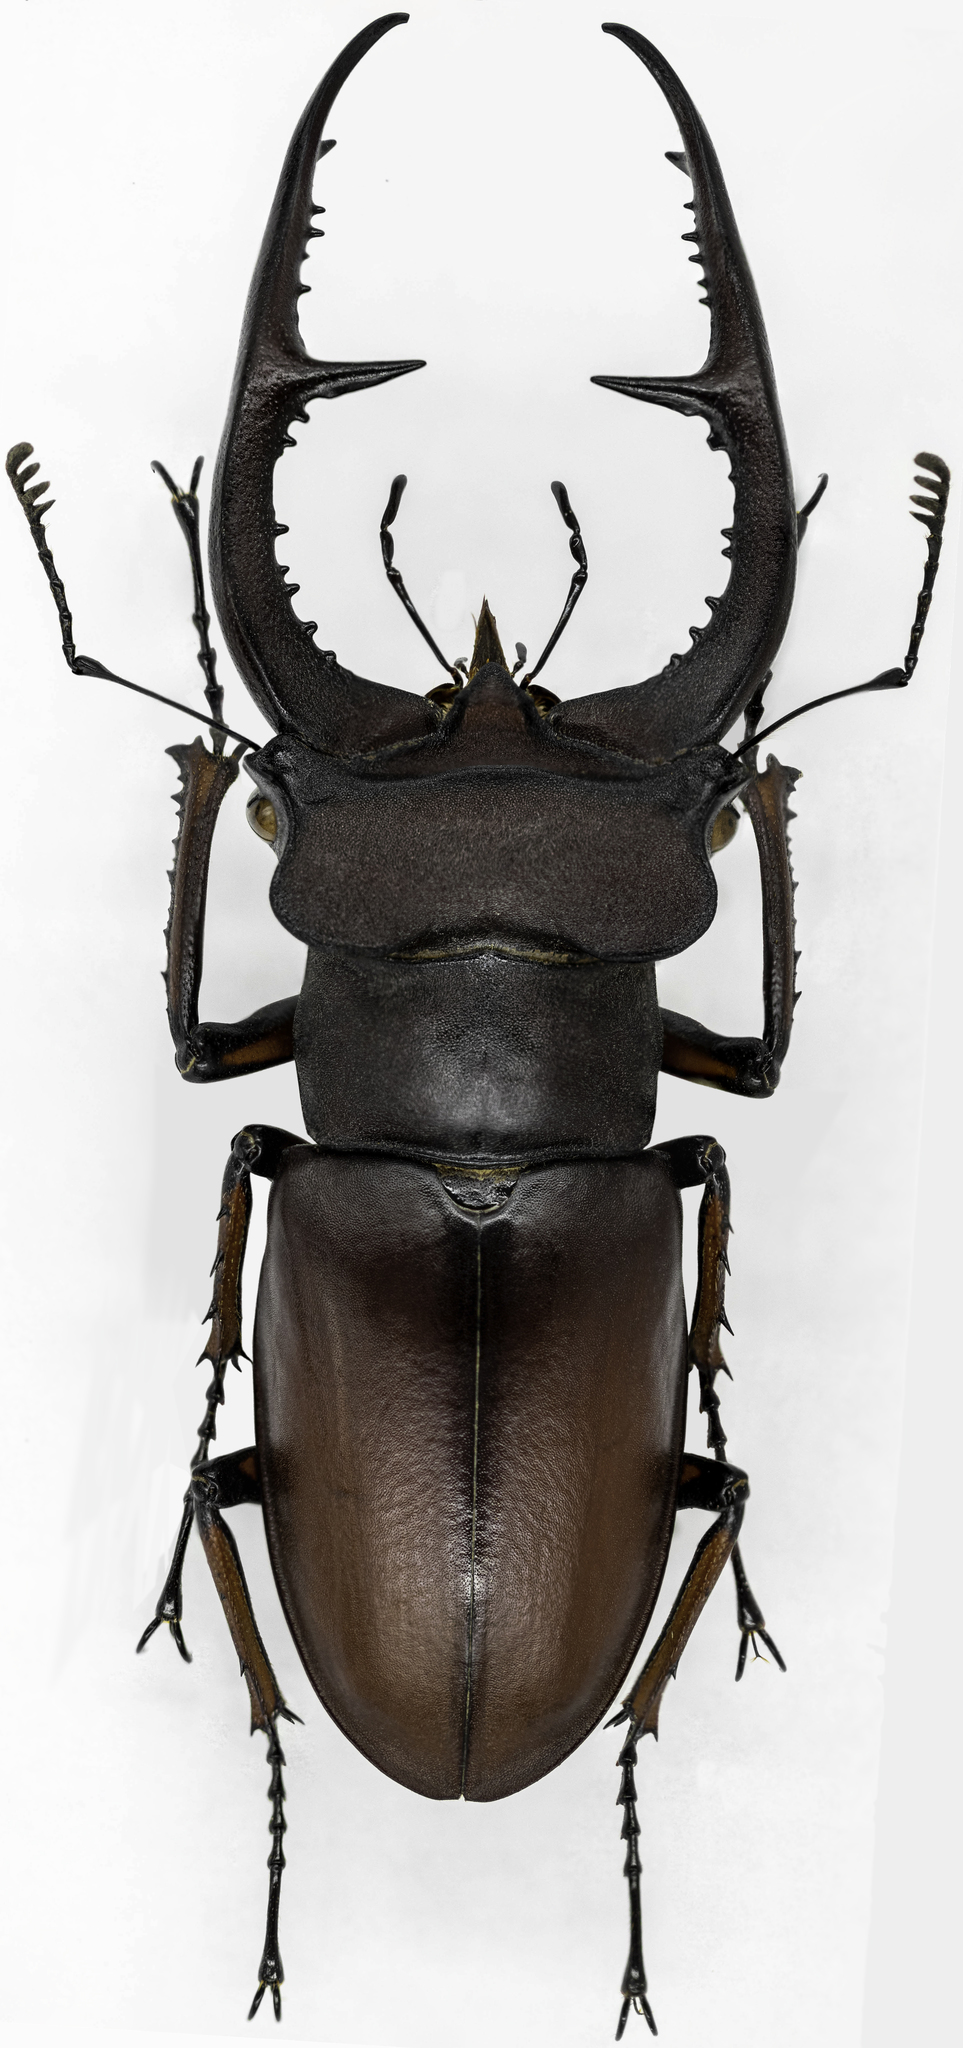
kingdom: Animalia
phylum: Arthropoda
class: Insecta
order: Coleoptera
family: Lucanidae
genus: Lucanus
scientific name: Lucanus deuveianus
